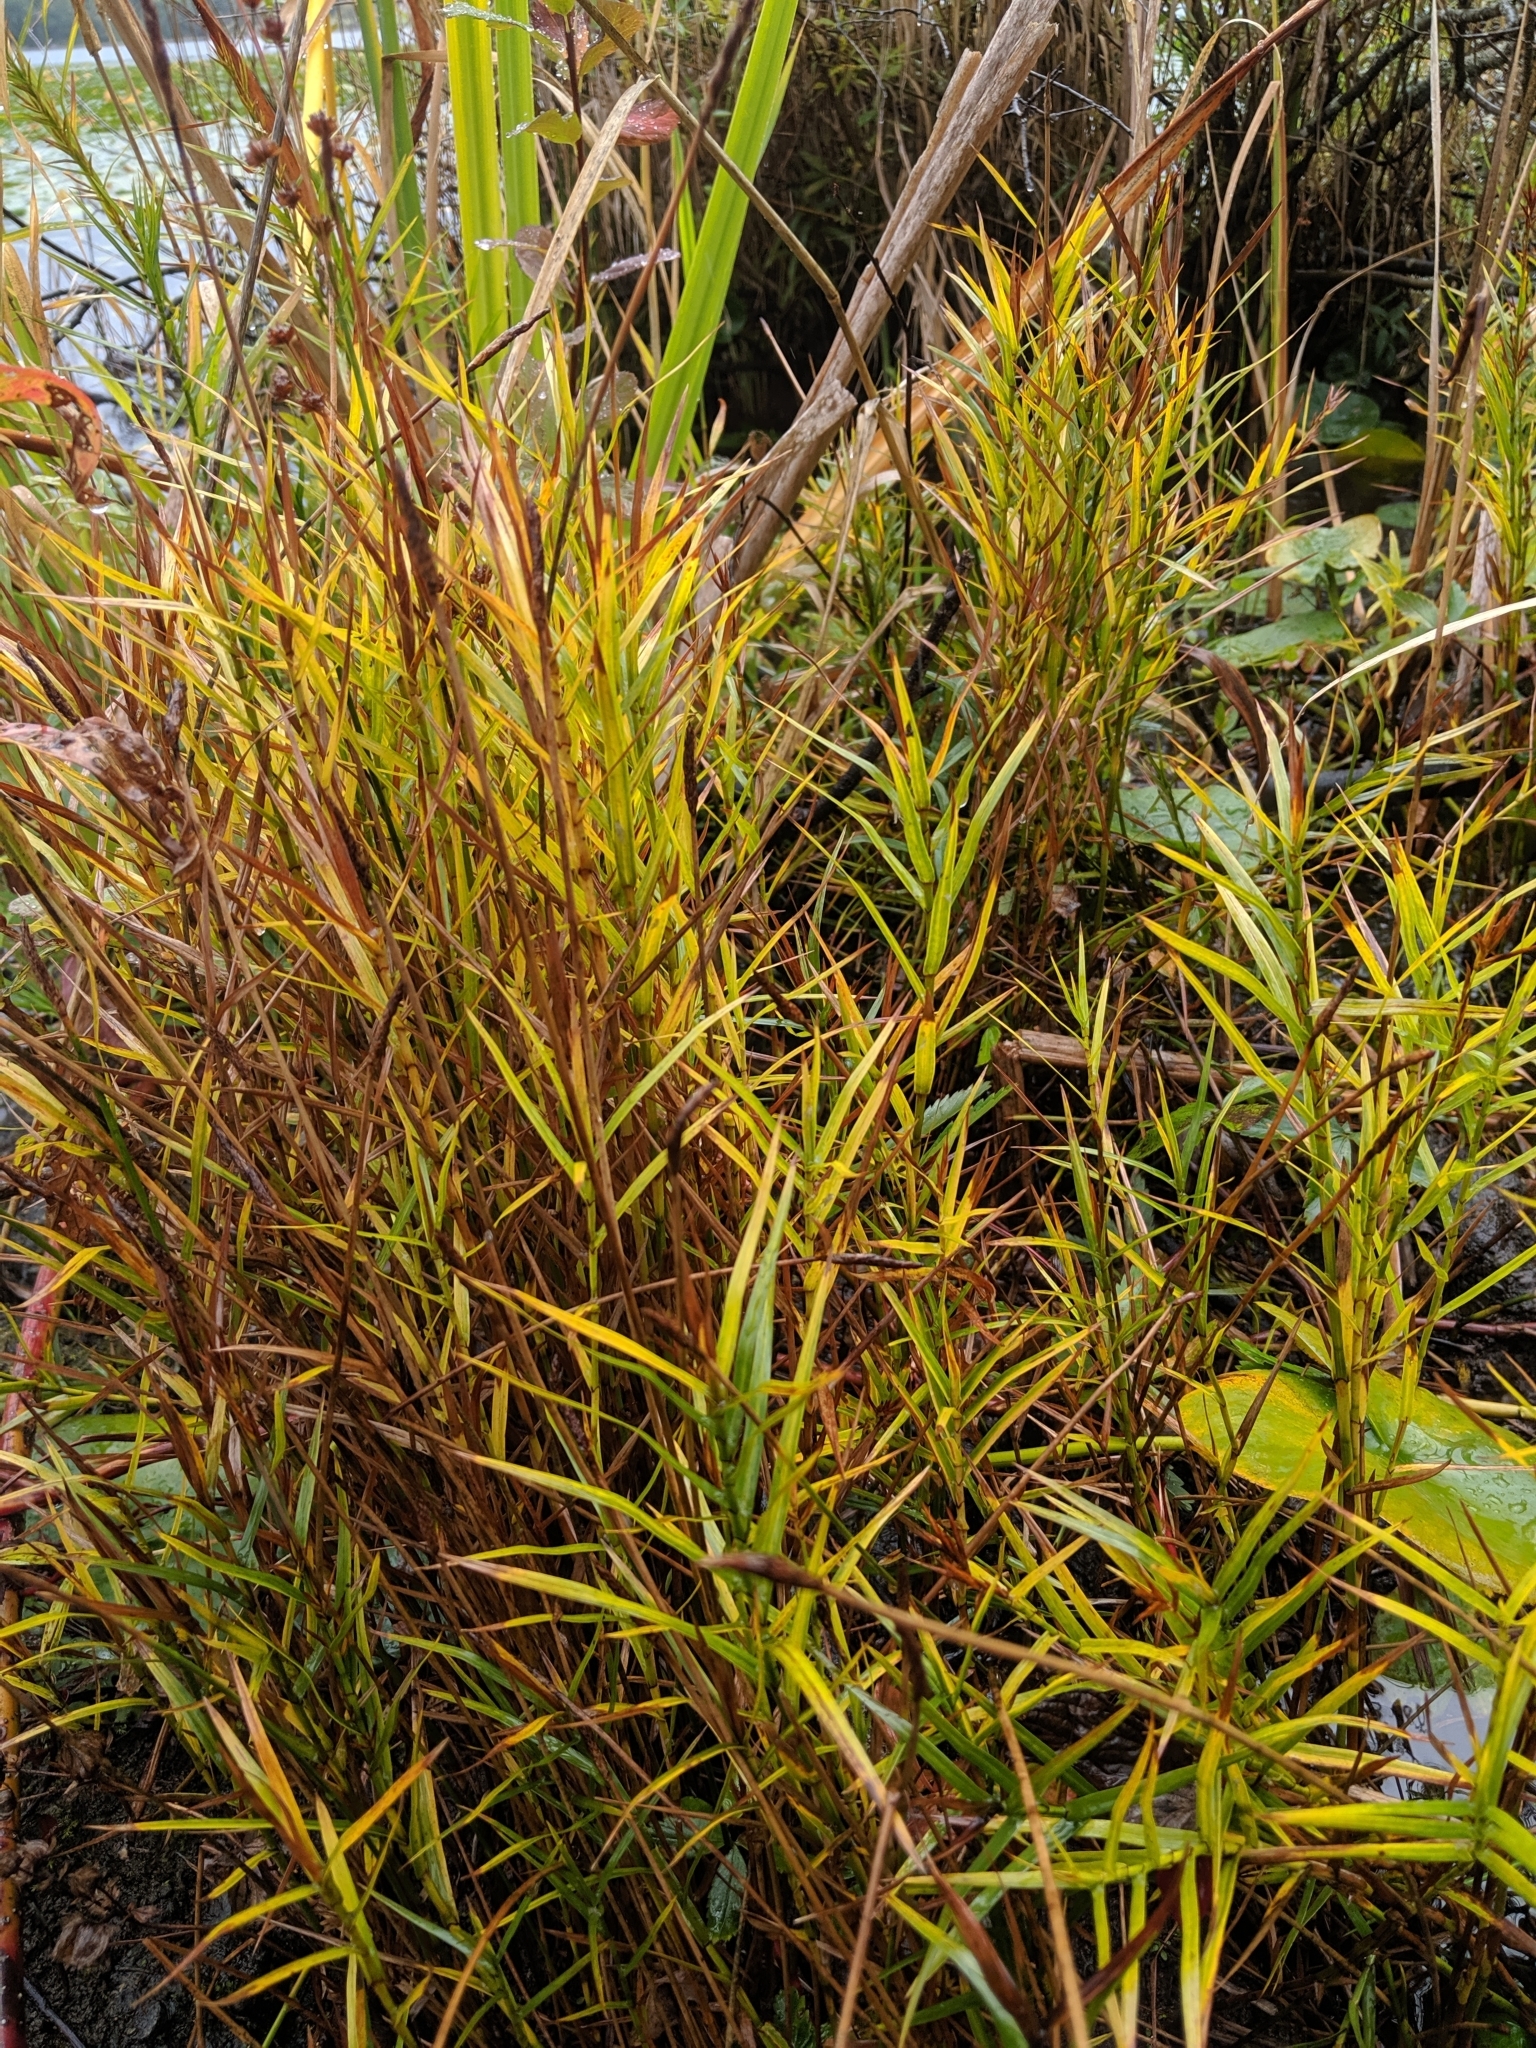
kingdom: Plantae
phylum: Tracheophyta
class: Liliopsida
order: Poales
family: Cyperaceae
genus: Dulichium
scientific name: Dulichium arundinaceum
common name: Three-way sedge
